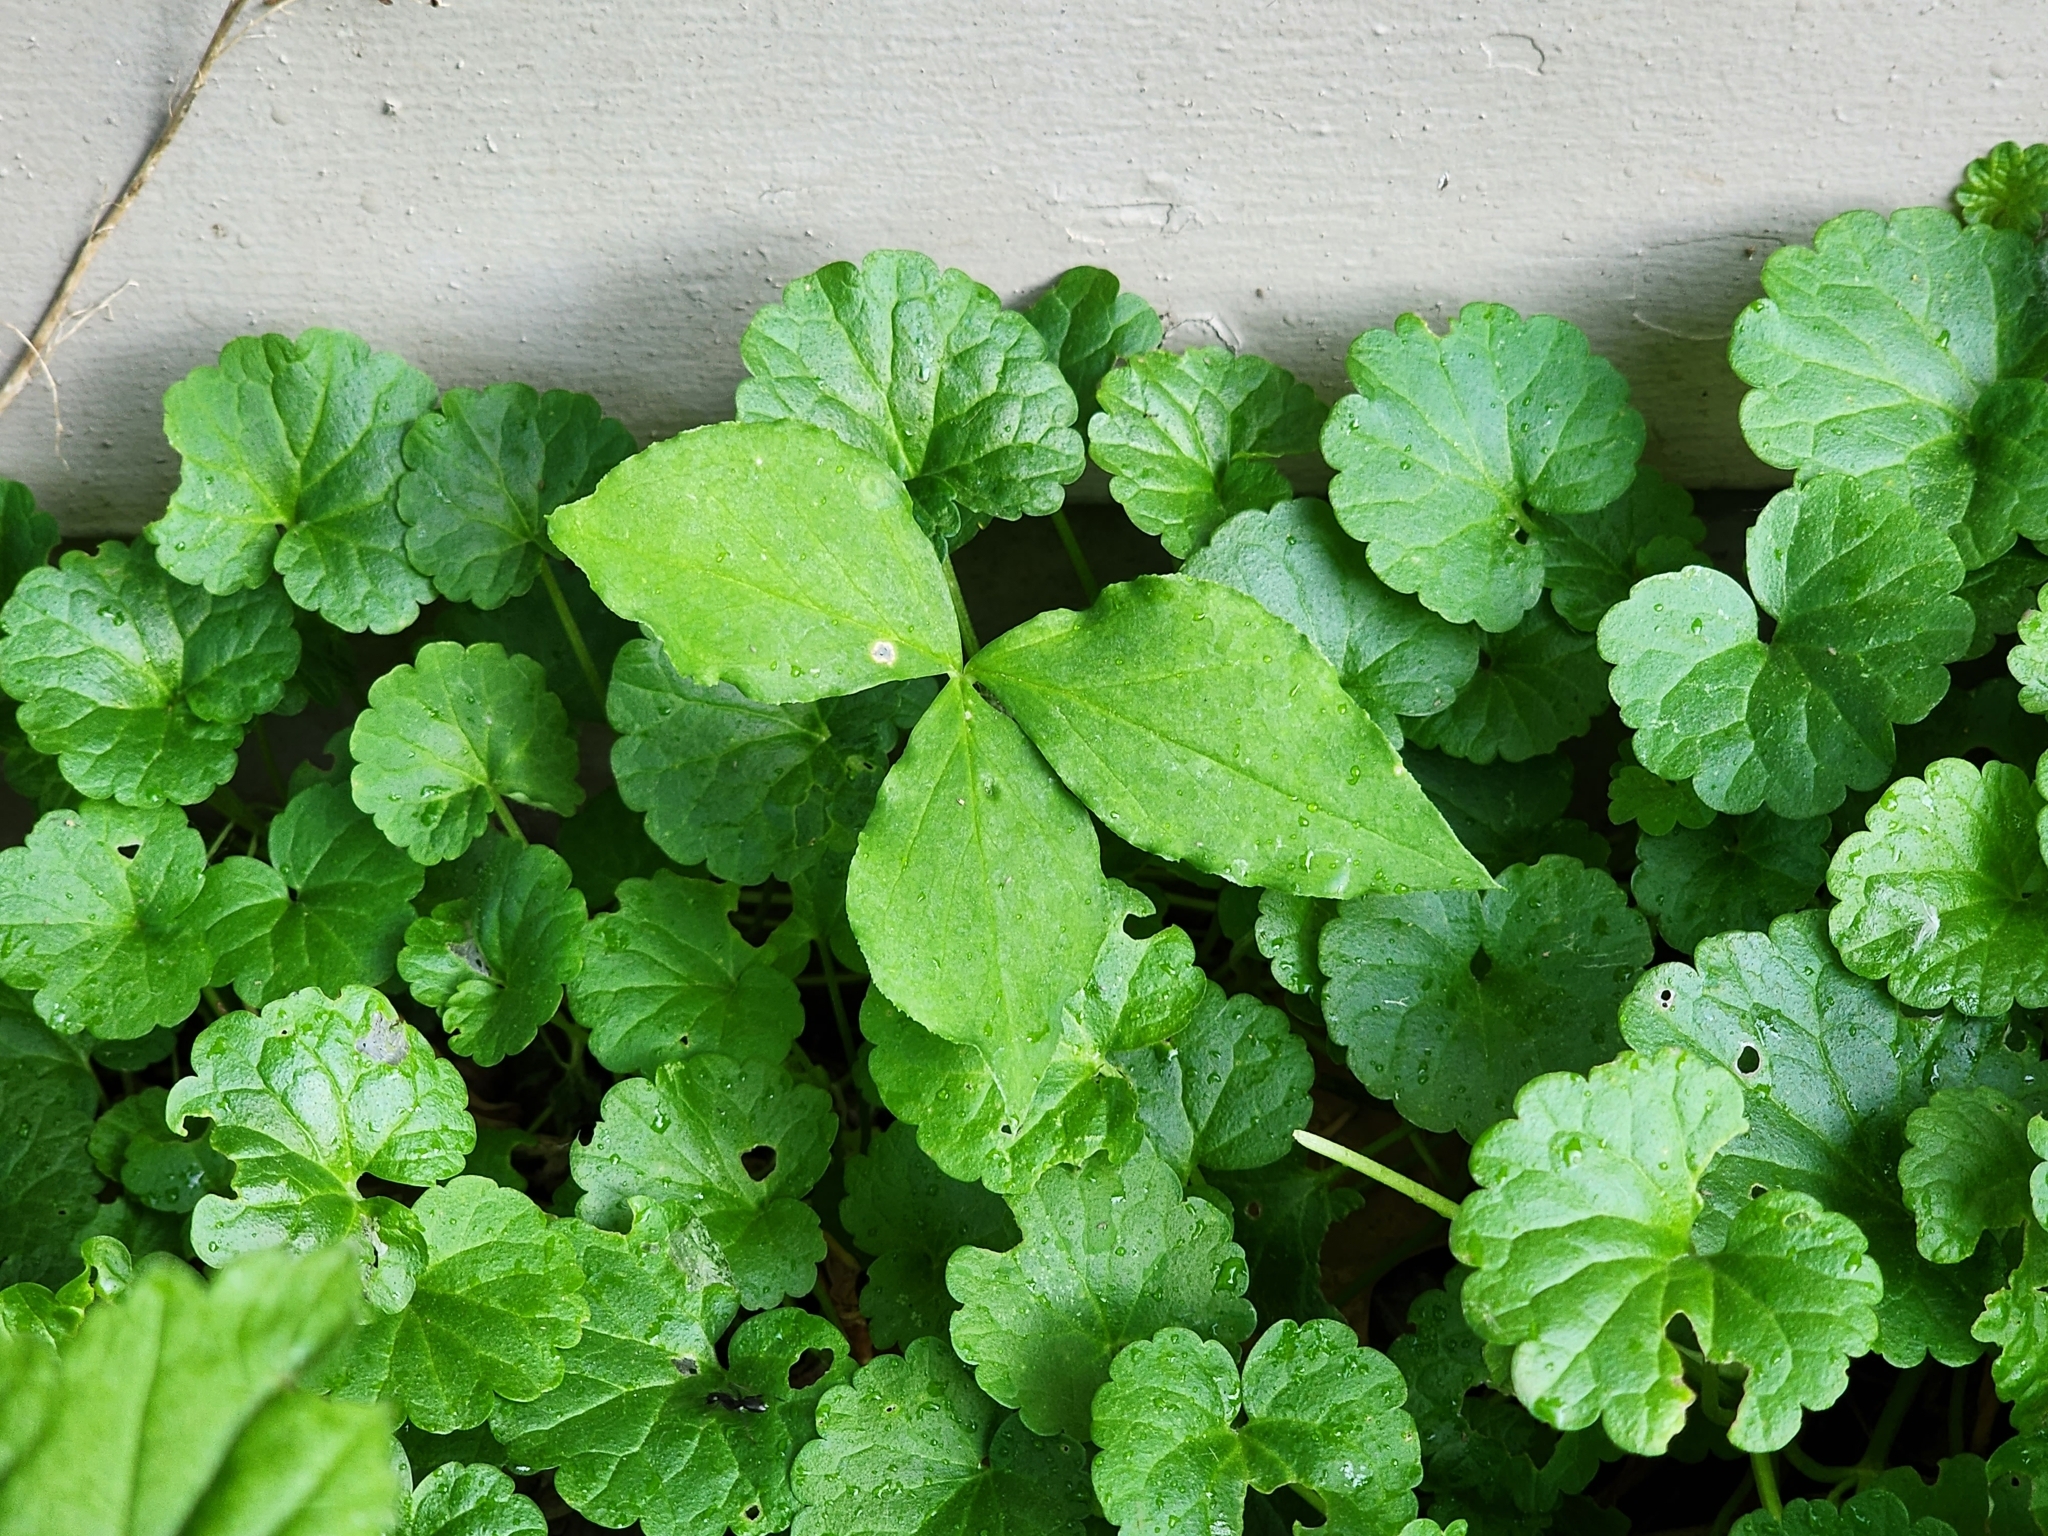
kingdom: Plantae
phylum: Tracheophyta
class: Liliopsida
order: Alismatales
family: Araceae
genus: Arisaema
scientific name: Arisaema triphyllum
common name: Jack-in-the-pulpit
